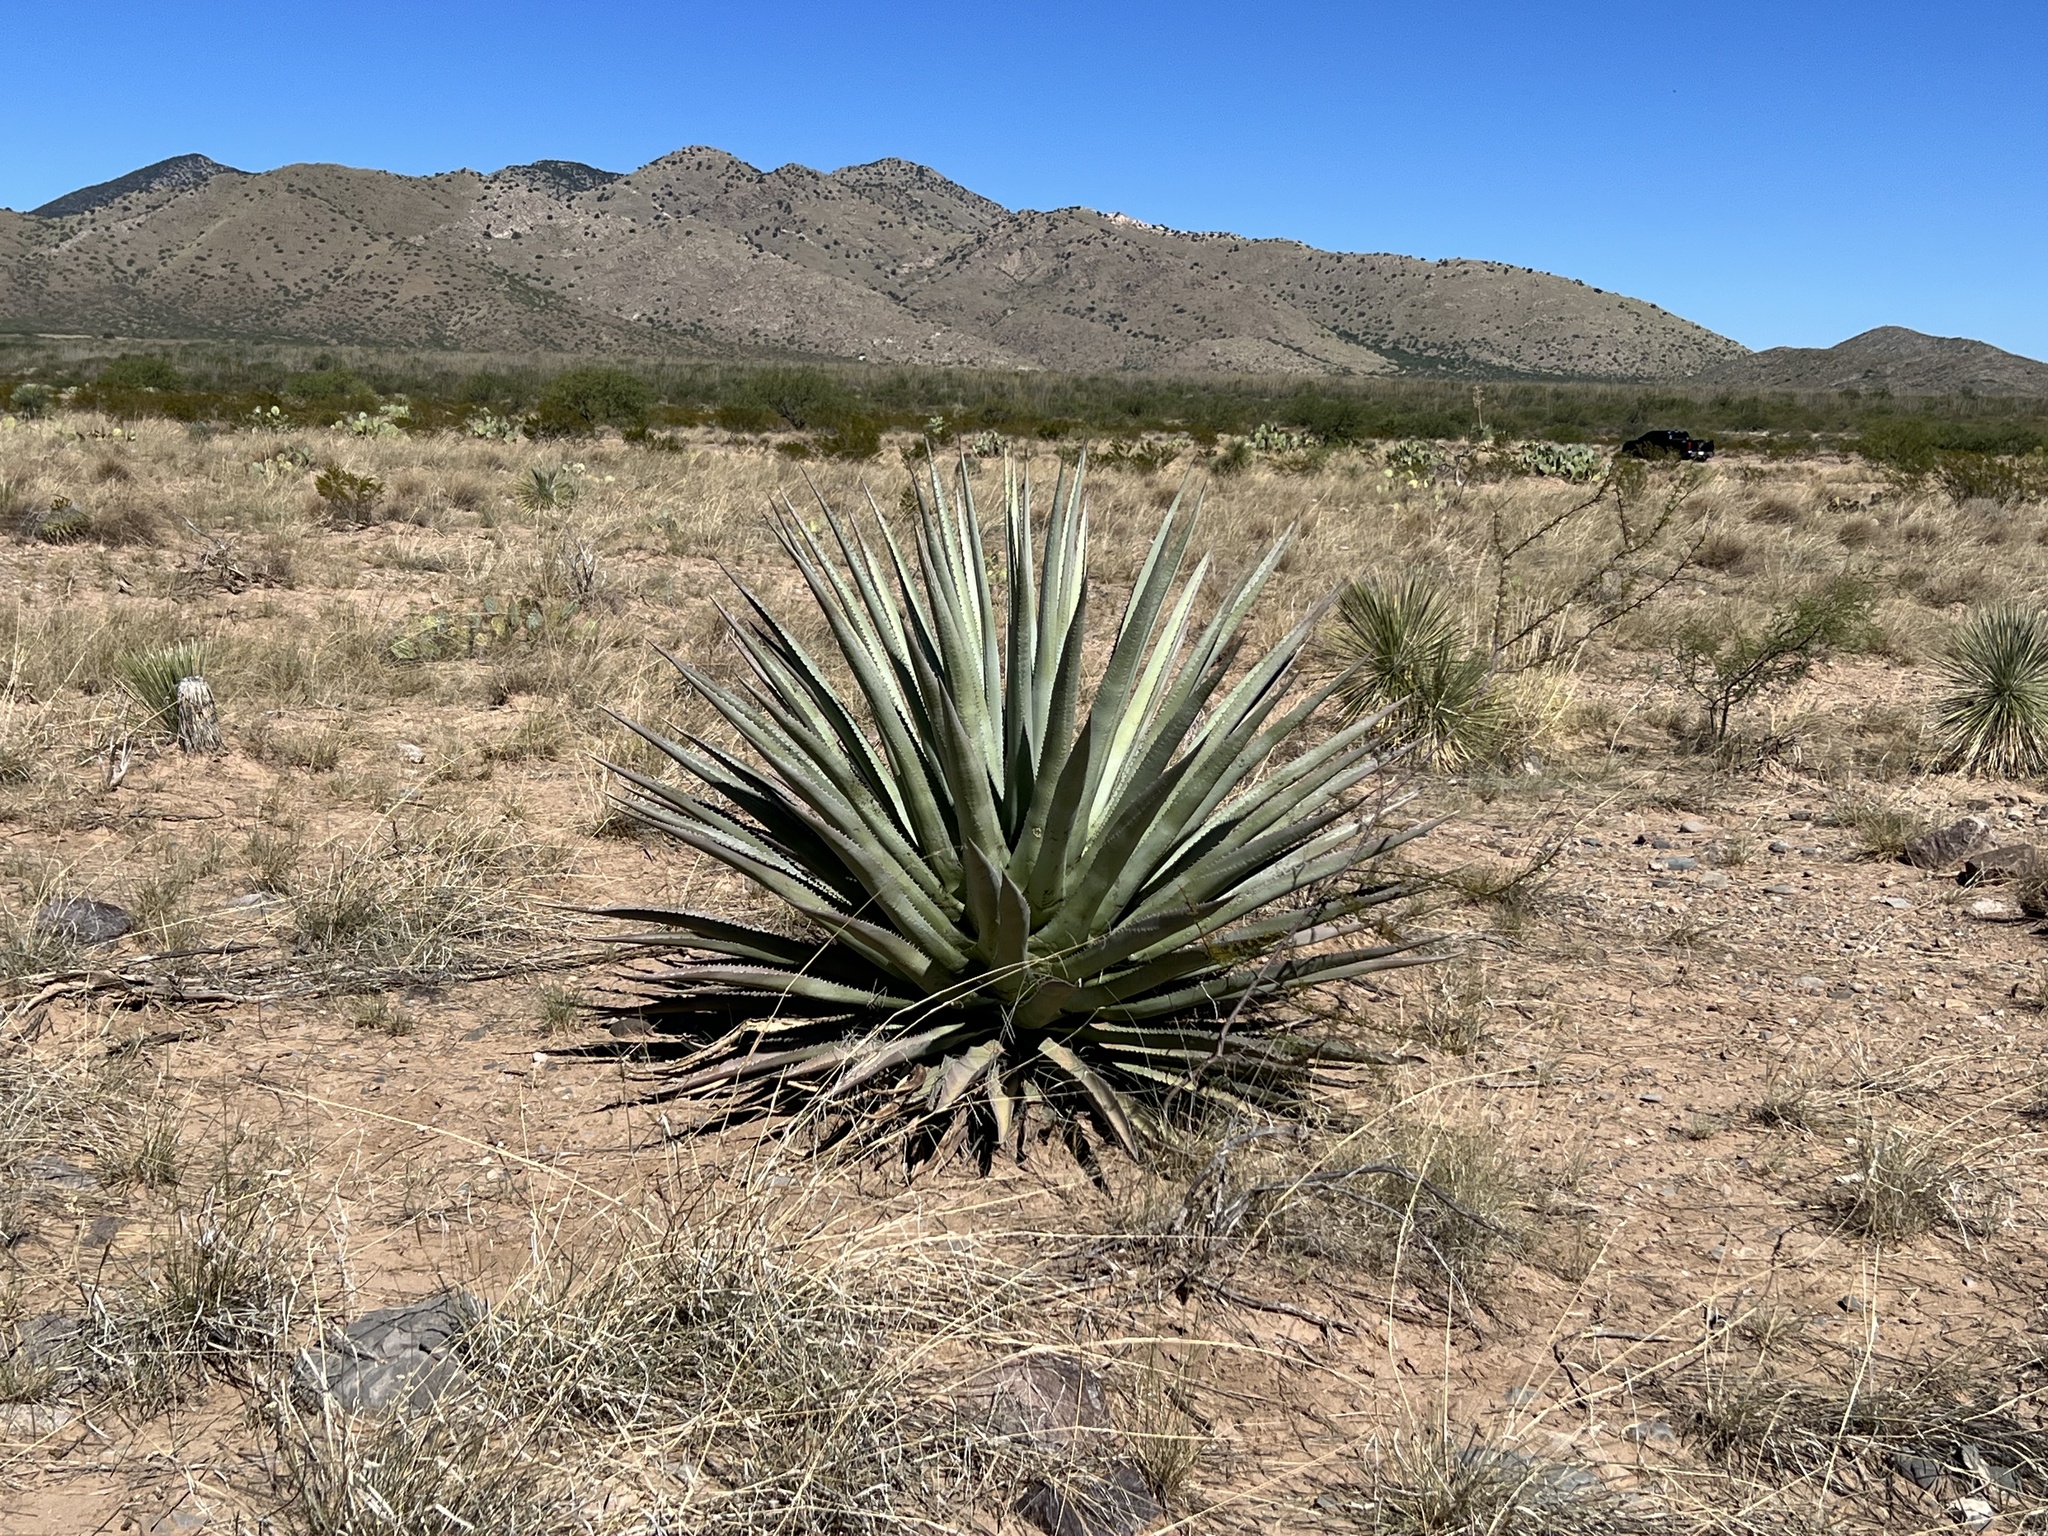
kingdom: Plantae
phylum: Tracheophyta
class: Liliopsida
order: Asparagales
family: Asparagaceae
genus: Agave
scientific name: Agave palmeri
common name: Palmer agave
